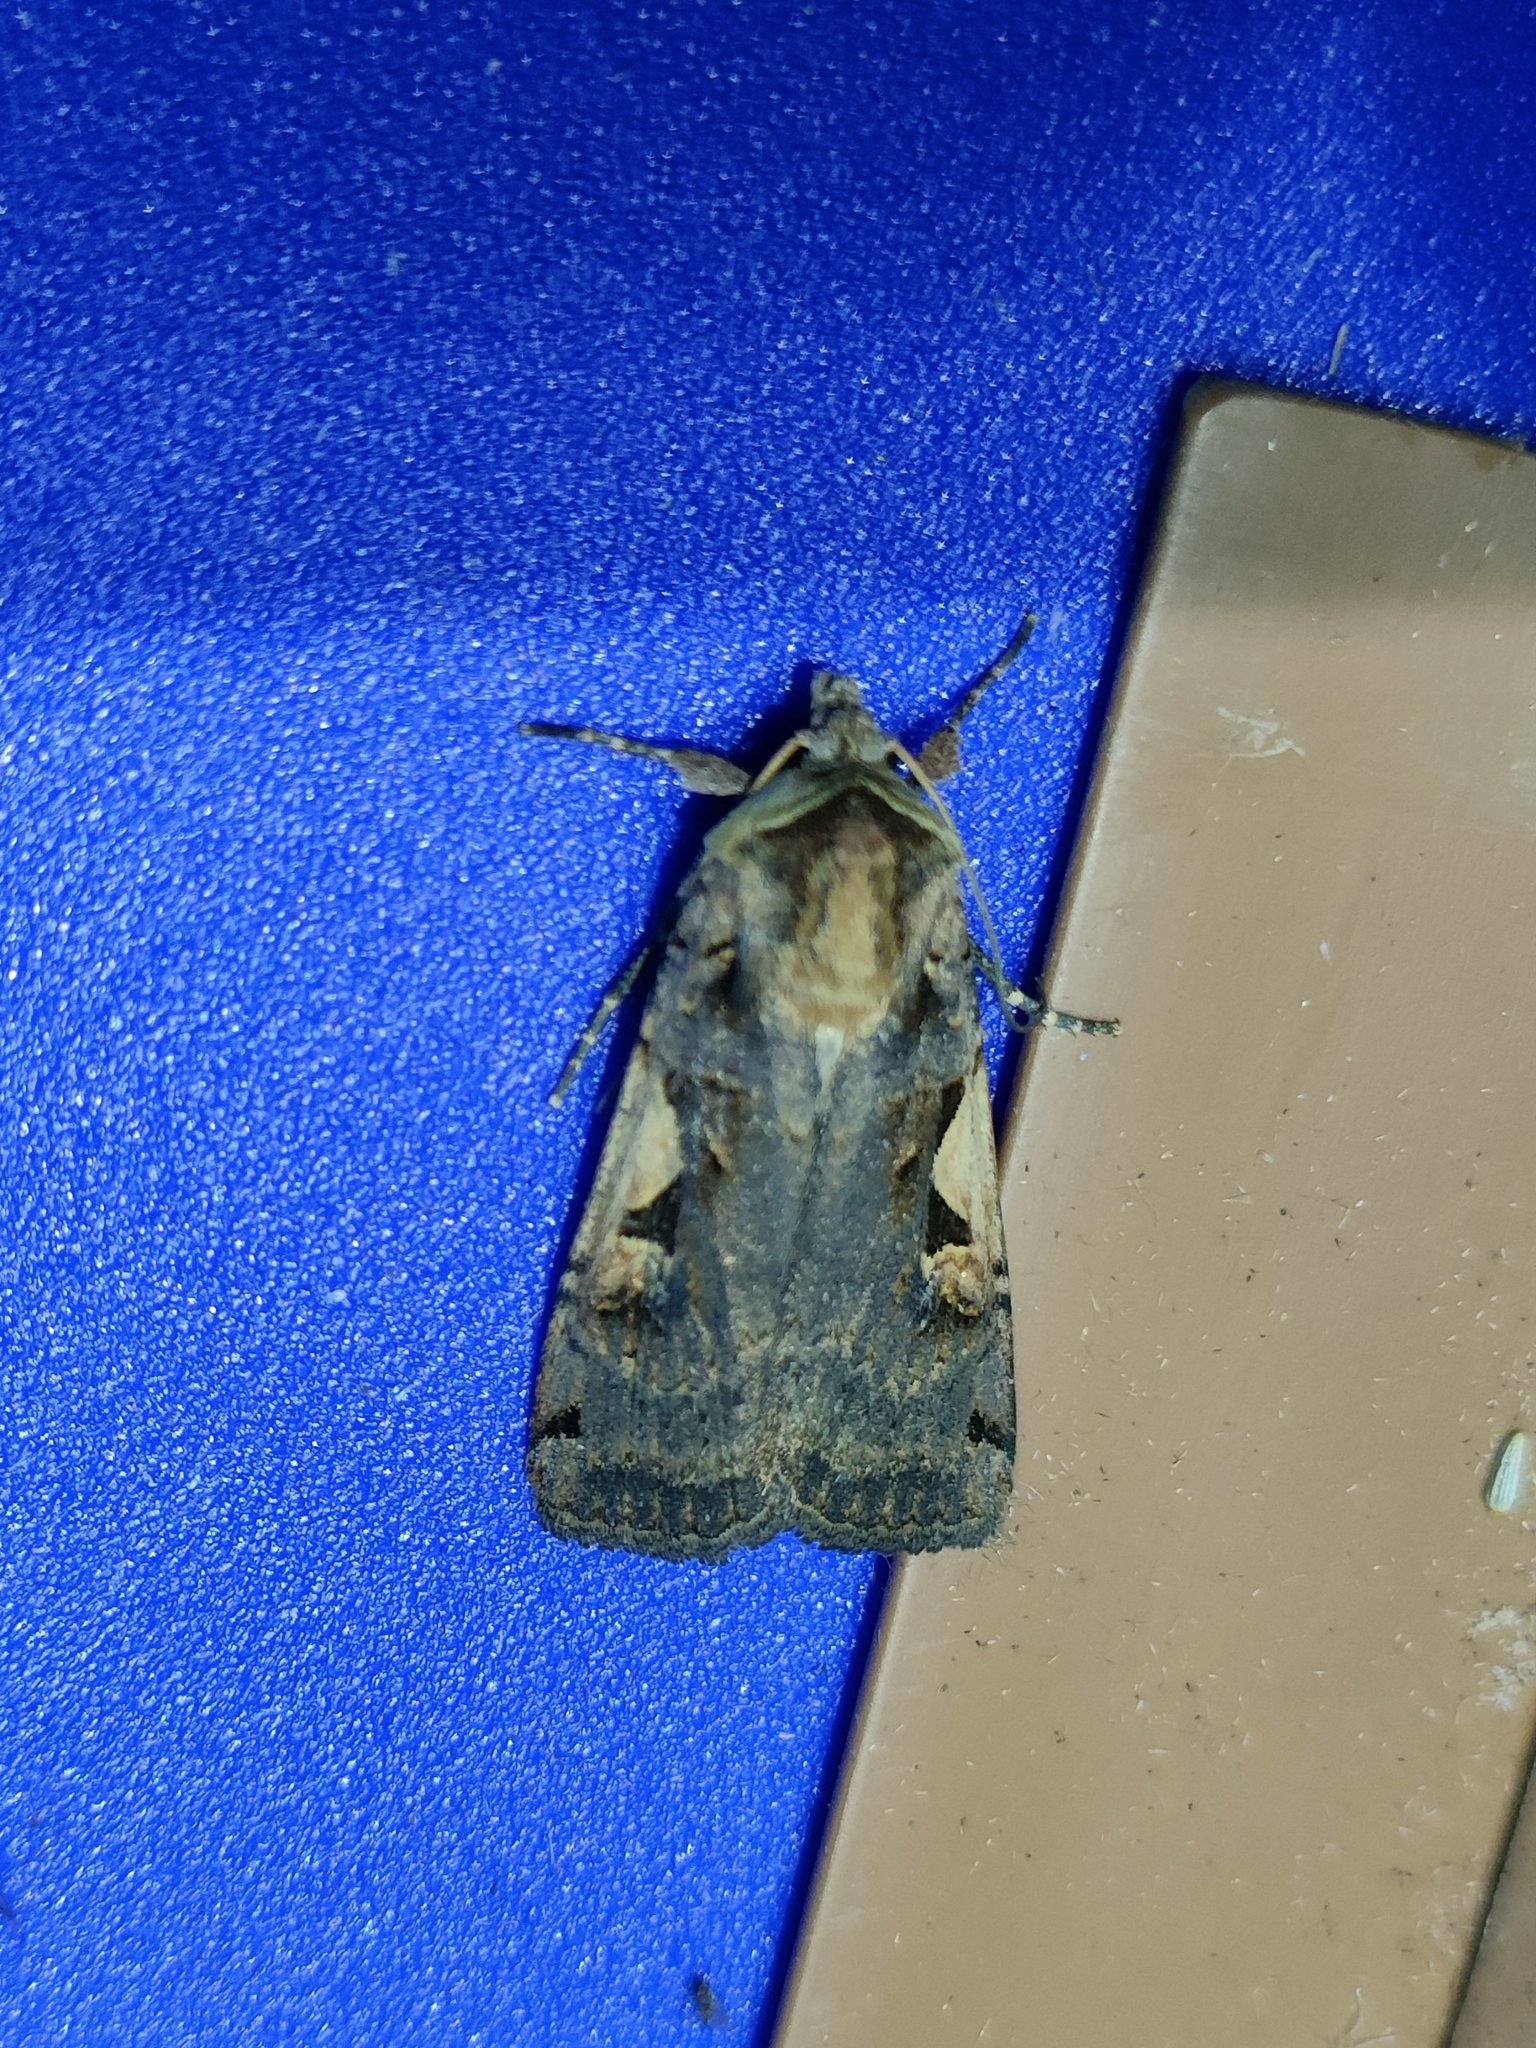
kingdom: Animalia
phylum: Arthropoda
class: Insecta
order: Lepidoptera
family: Noctuidae
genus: Xestia
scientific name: Xestia c-nigrum
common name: Setaceous hebrew character
